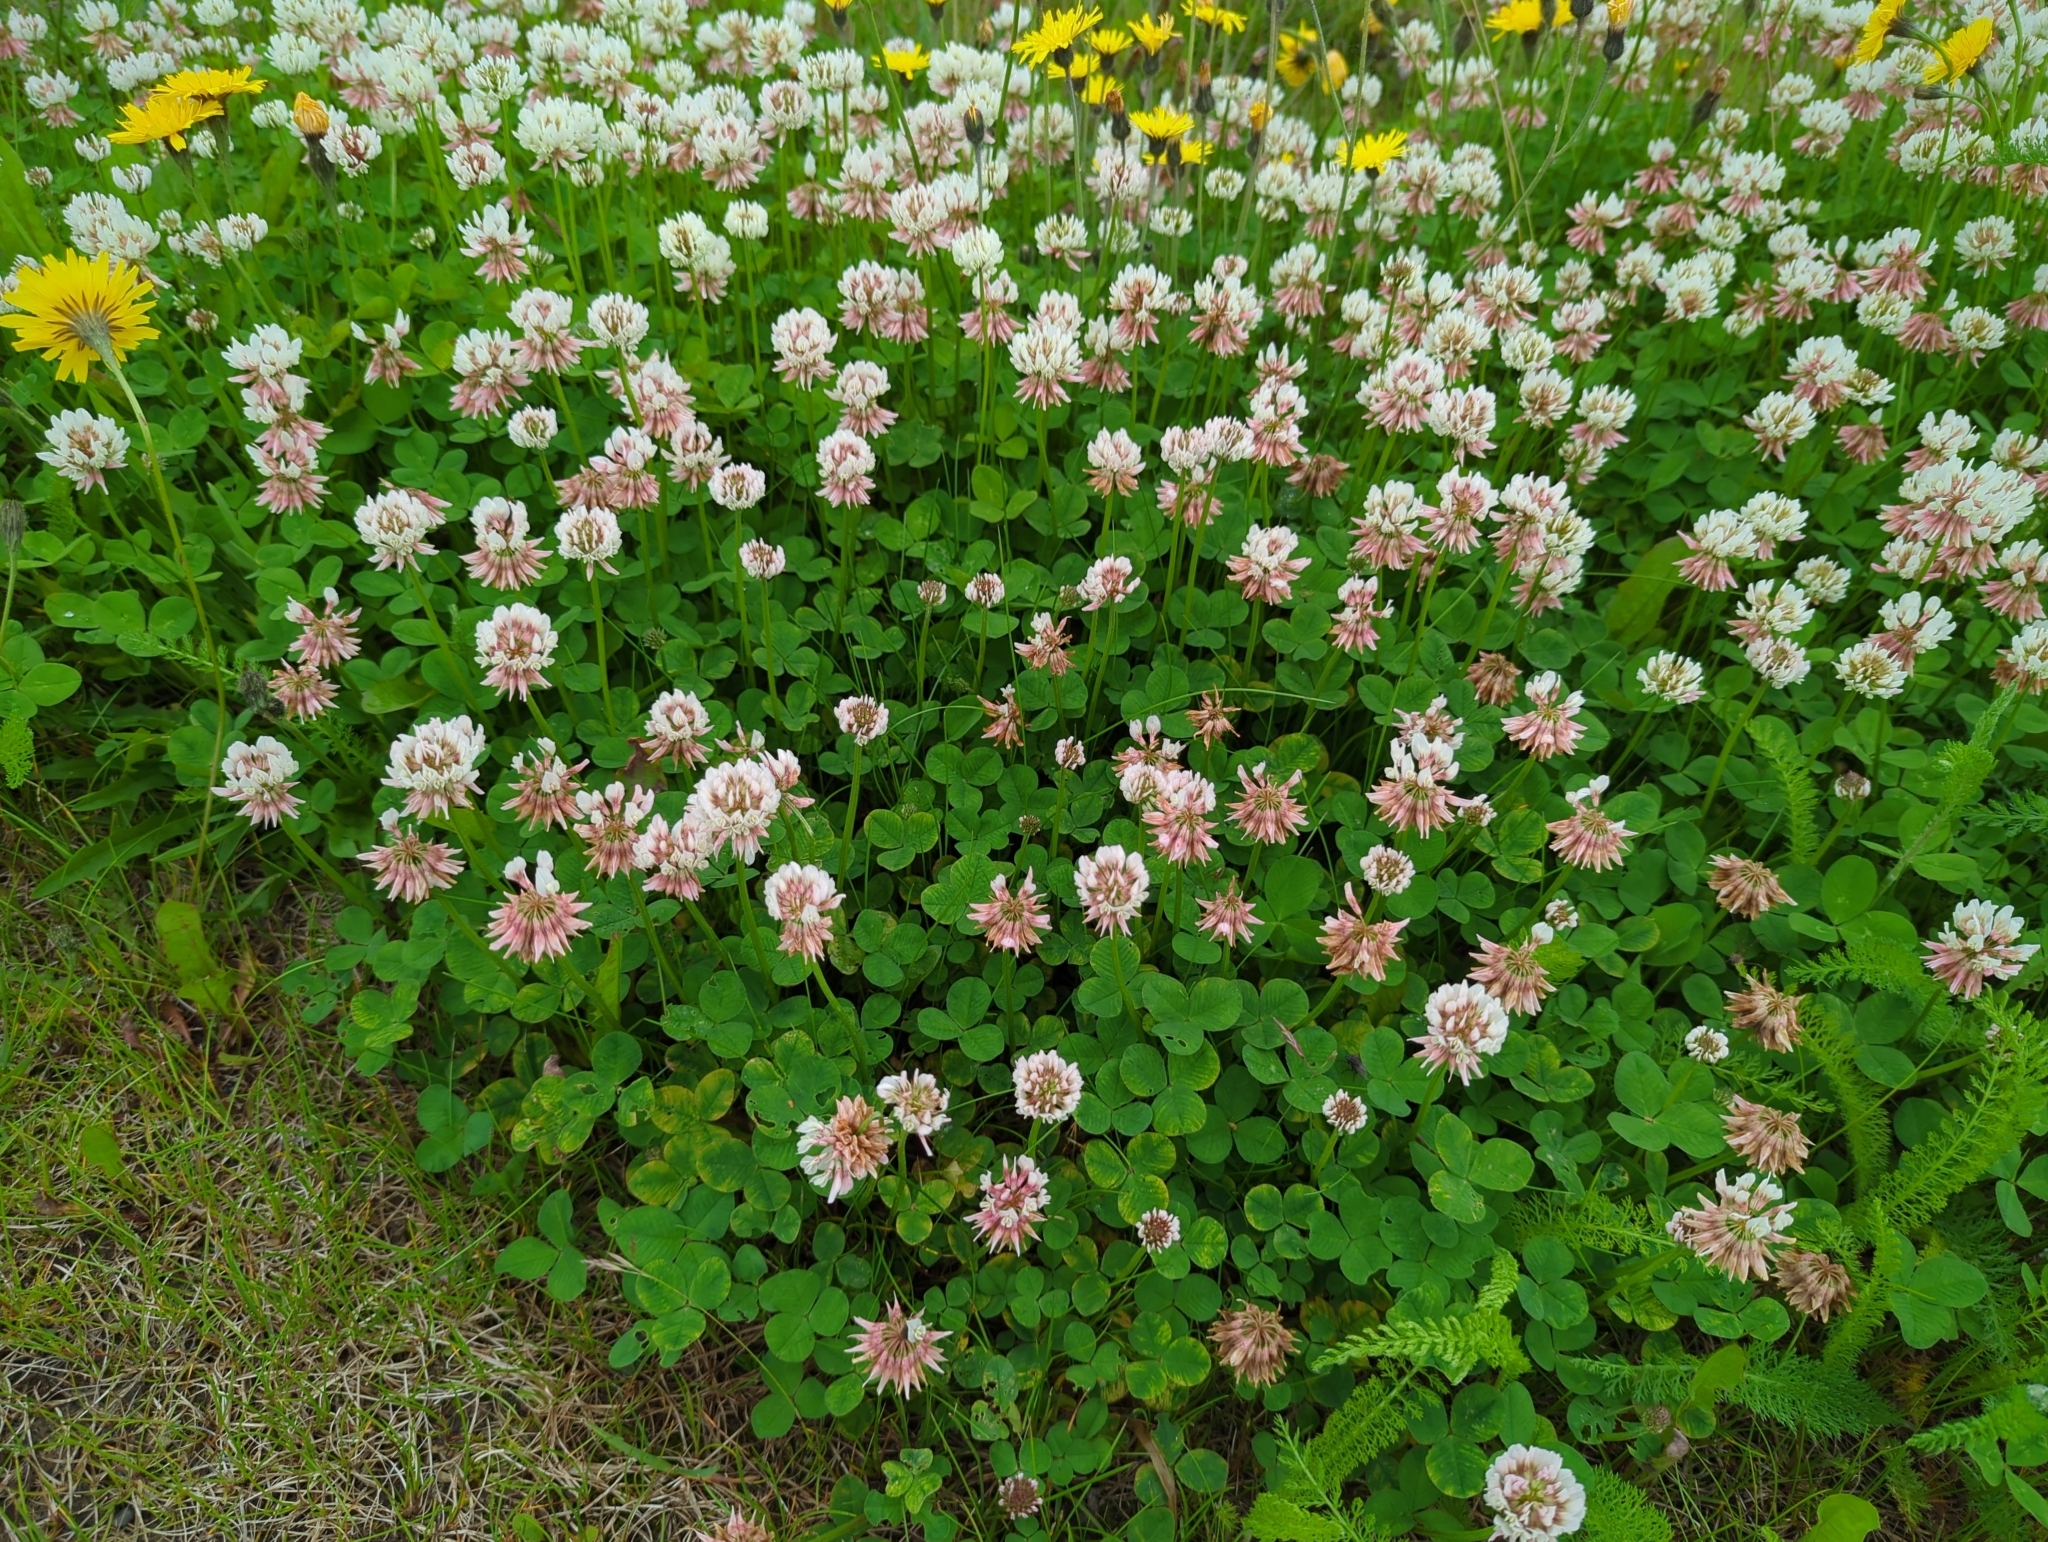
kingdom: Plantae
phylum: Tracheophyta
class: Magnoliopsida
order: Fabales
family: Fabaceae
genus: Trifolium
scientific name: Trifolium hybridum
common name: Alsike clover
